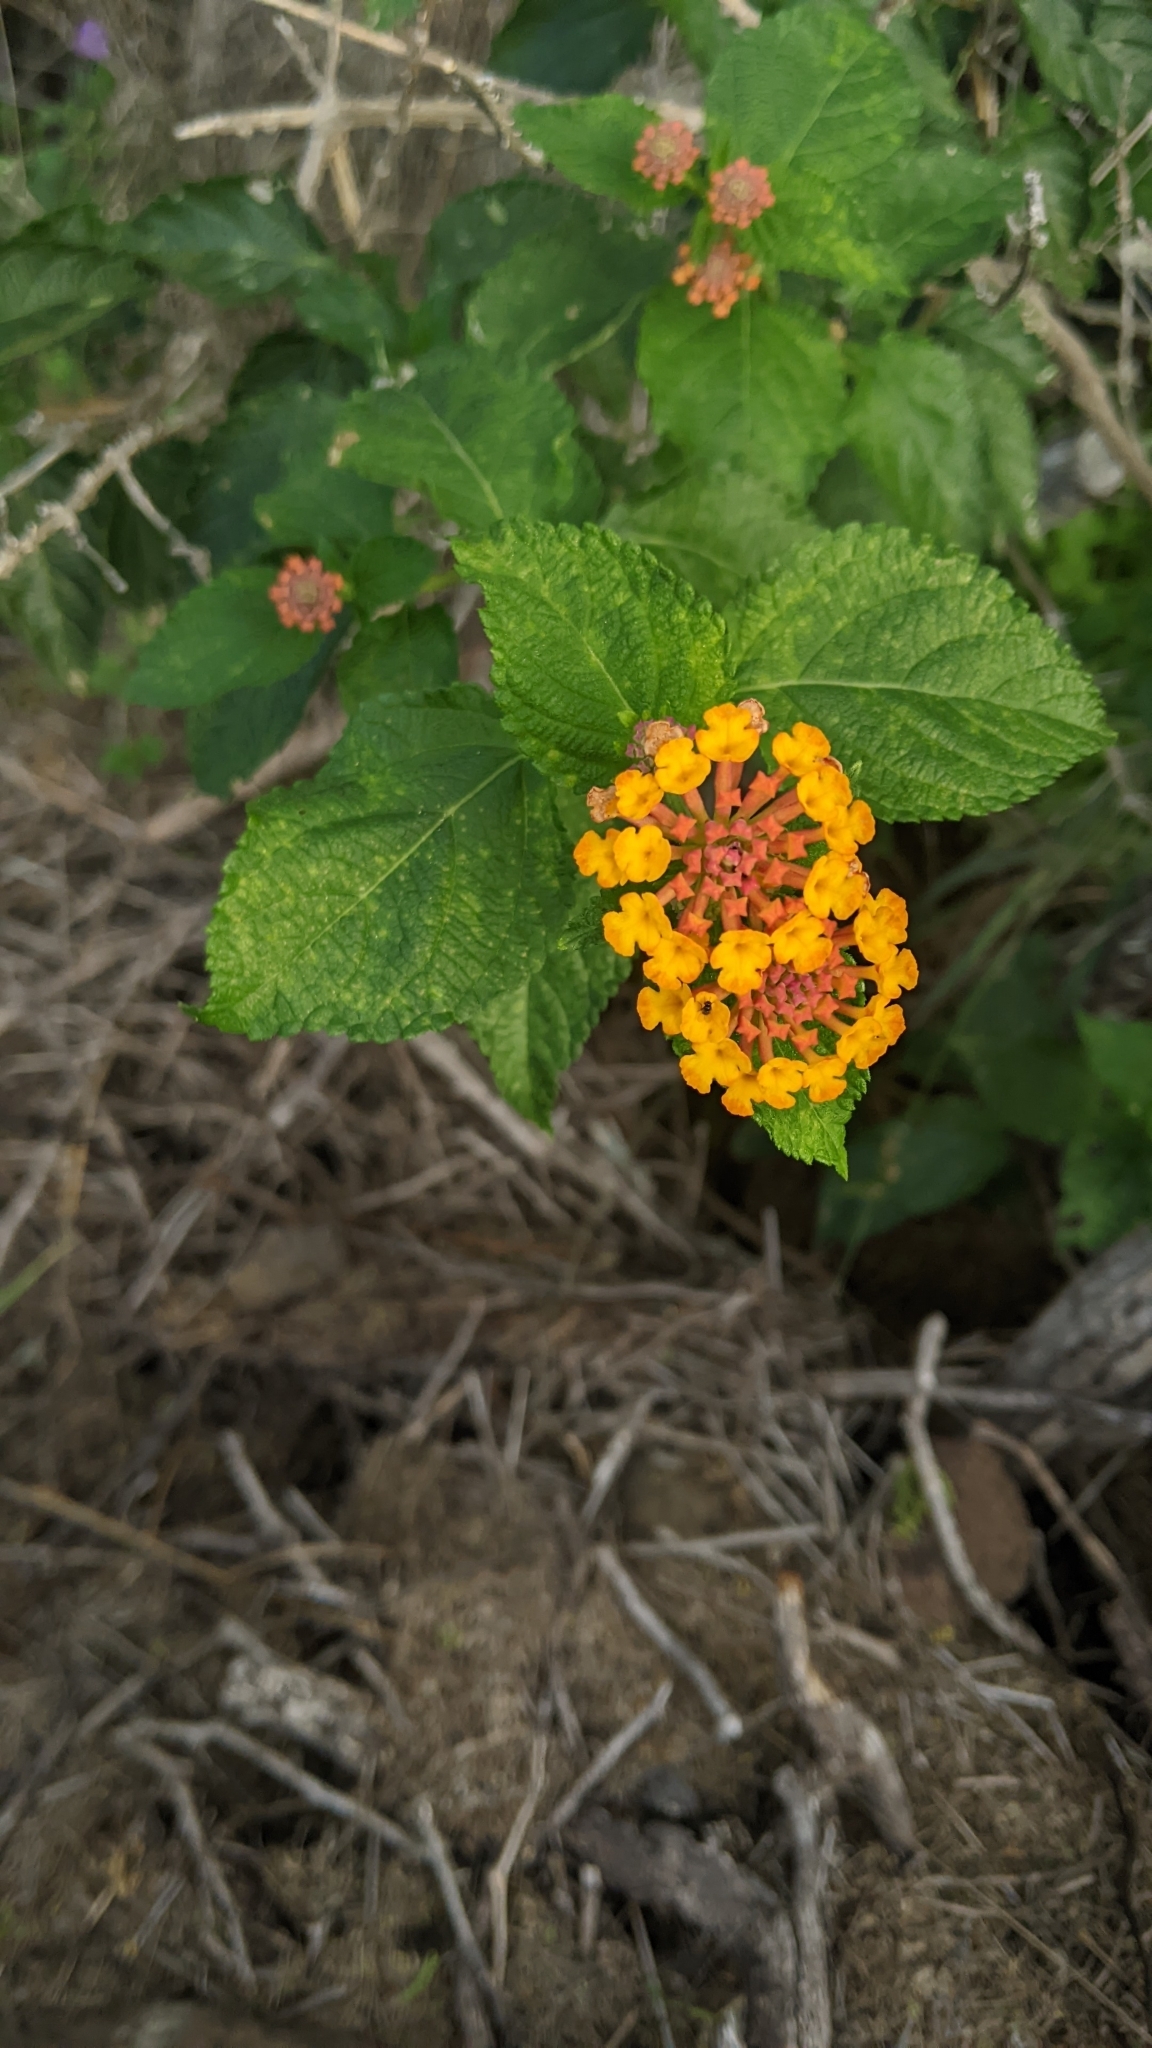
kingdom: Plantae
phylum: Tracheophyta
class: Magnoliopsida
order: Lamiales
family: Verbenaceae
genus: Lantana
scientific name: Lantana camara
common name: Lantana
